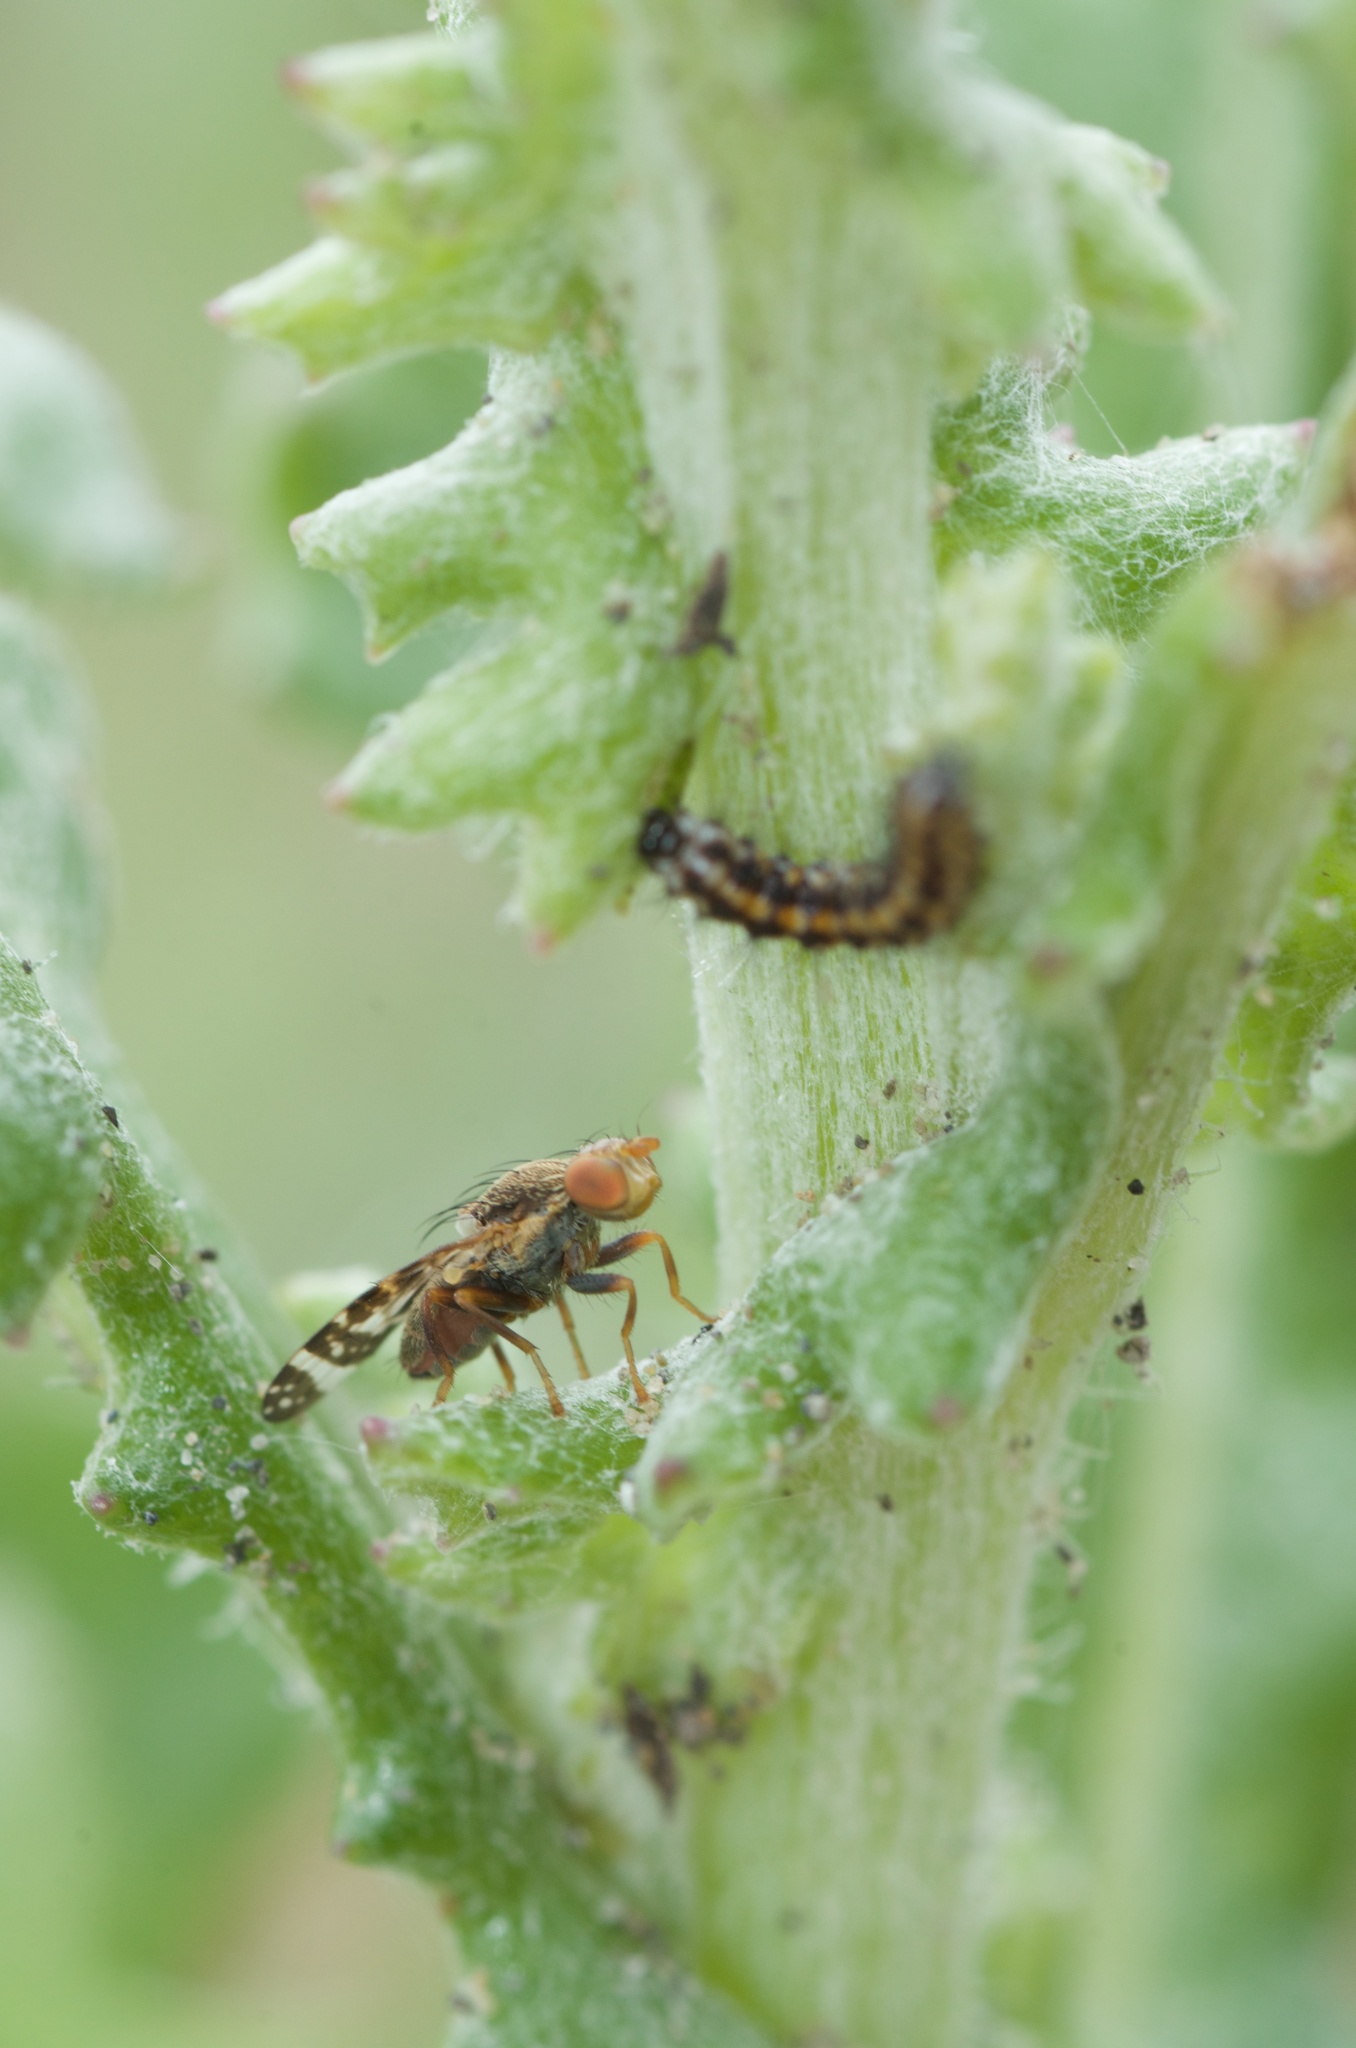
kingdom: Animalia
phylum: Arthropoda
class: Insecta
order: Lepidoptera
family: Erebidae
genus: Nyctemera
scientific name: Nyctemera annulatum
